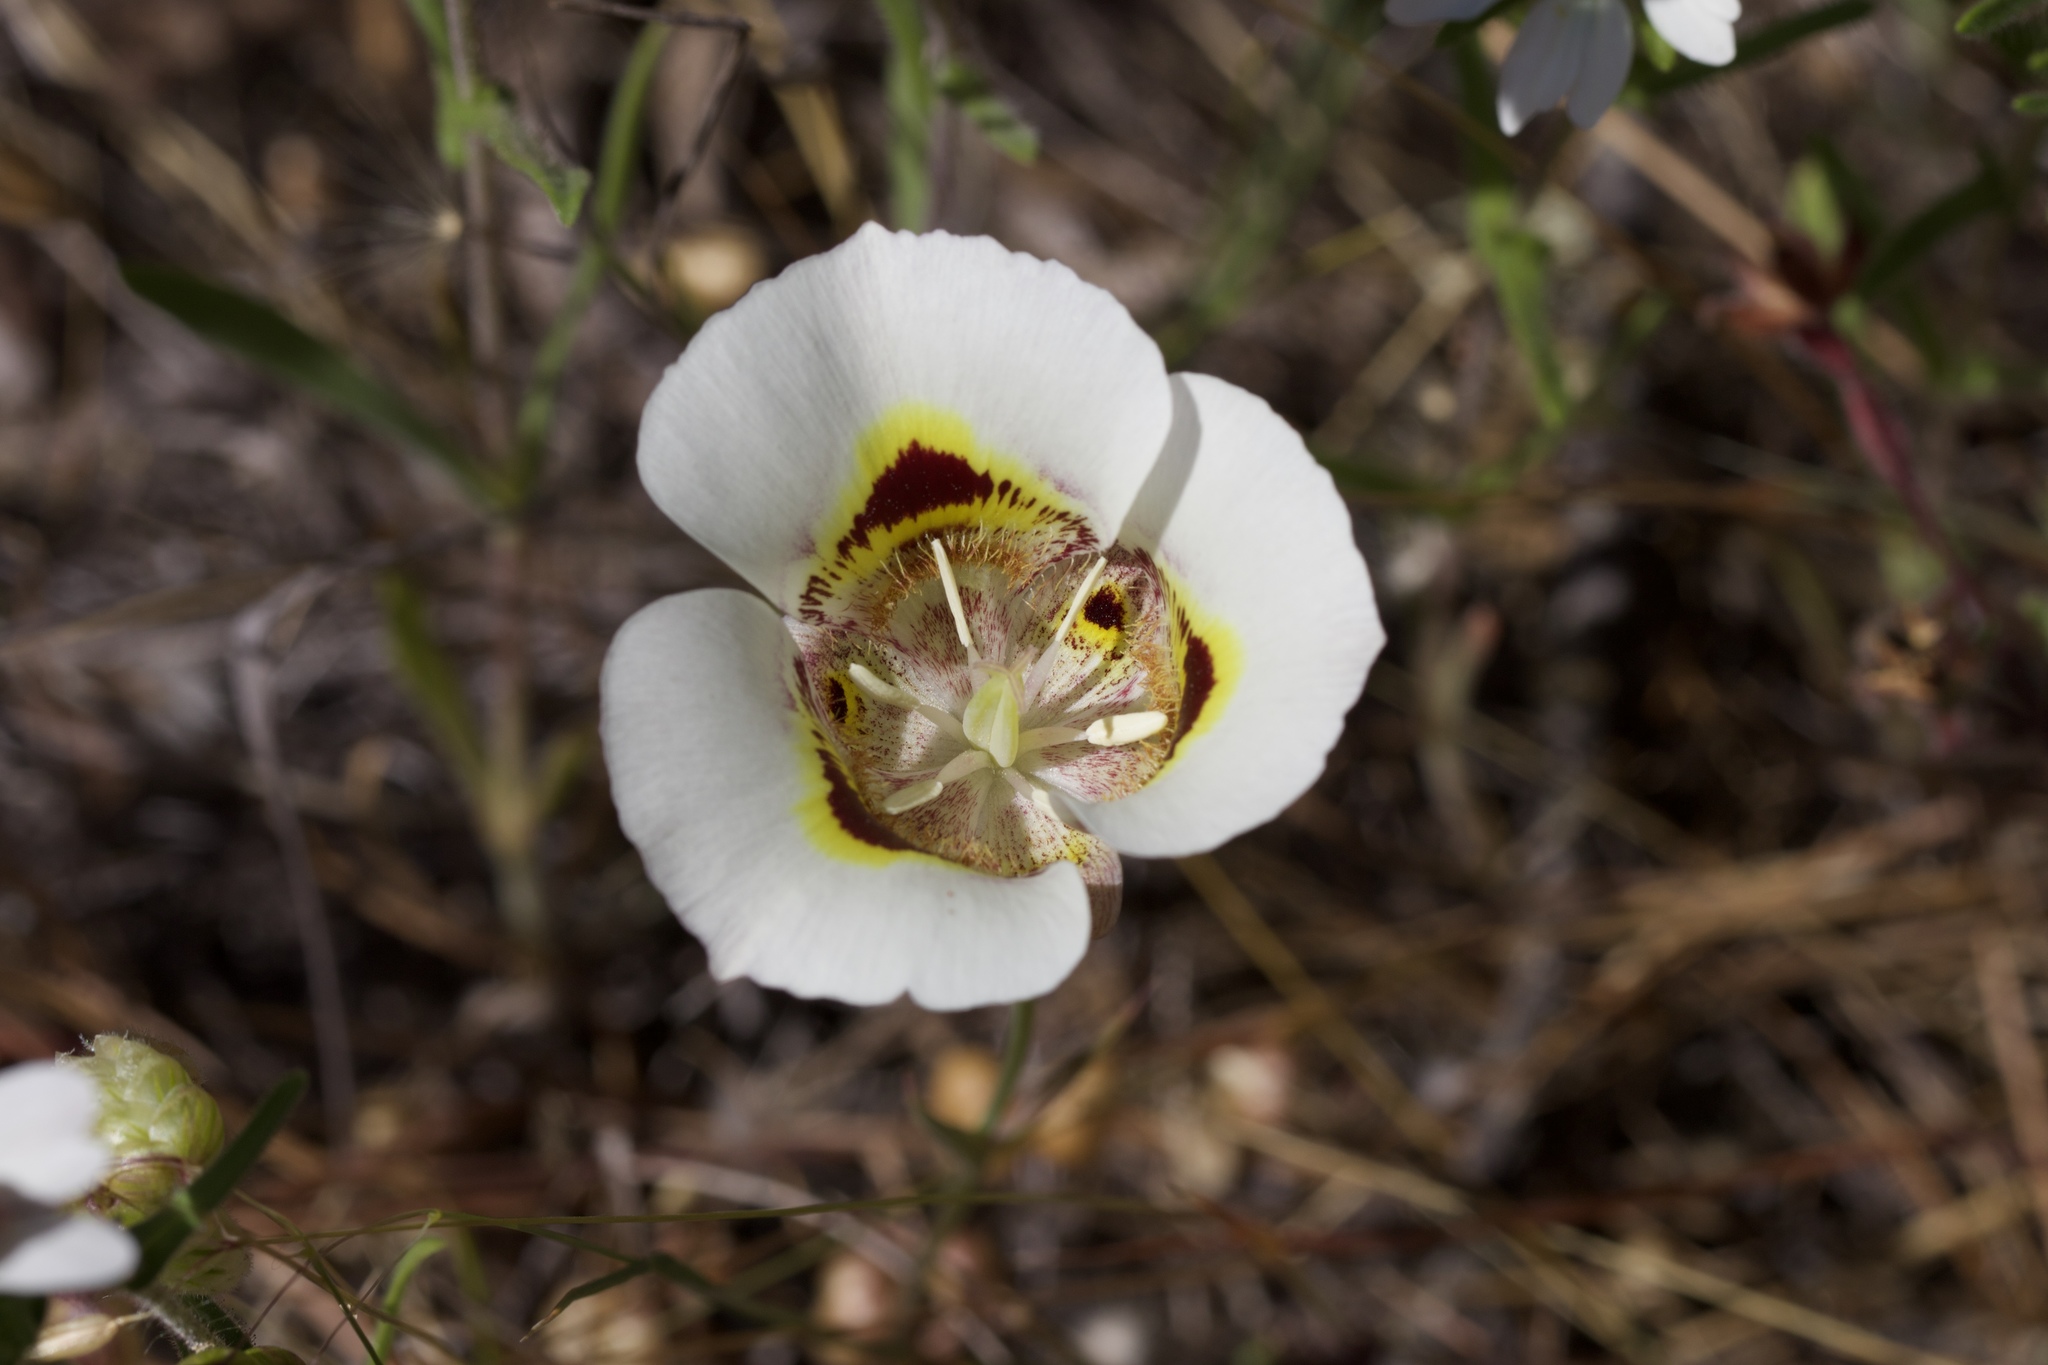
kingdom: Plantae
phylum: Tracheophyta
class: Liliopsida
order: Liliales
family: Liliaceae
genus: Calochortus
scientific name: Calochortus superbus
